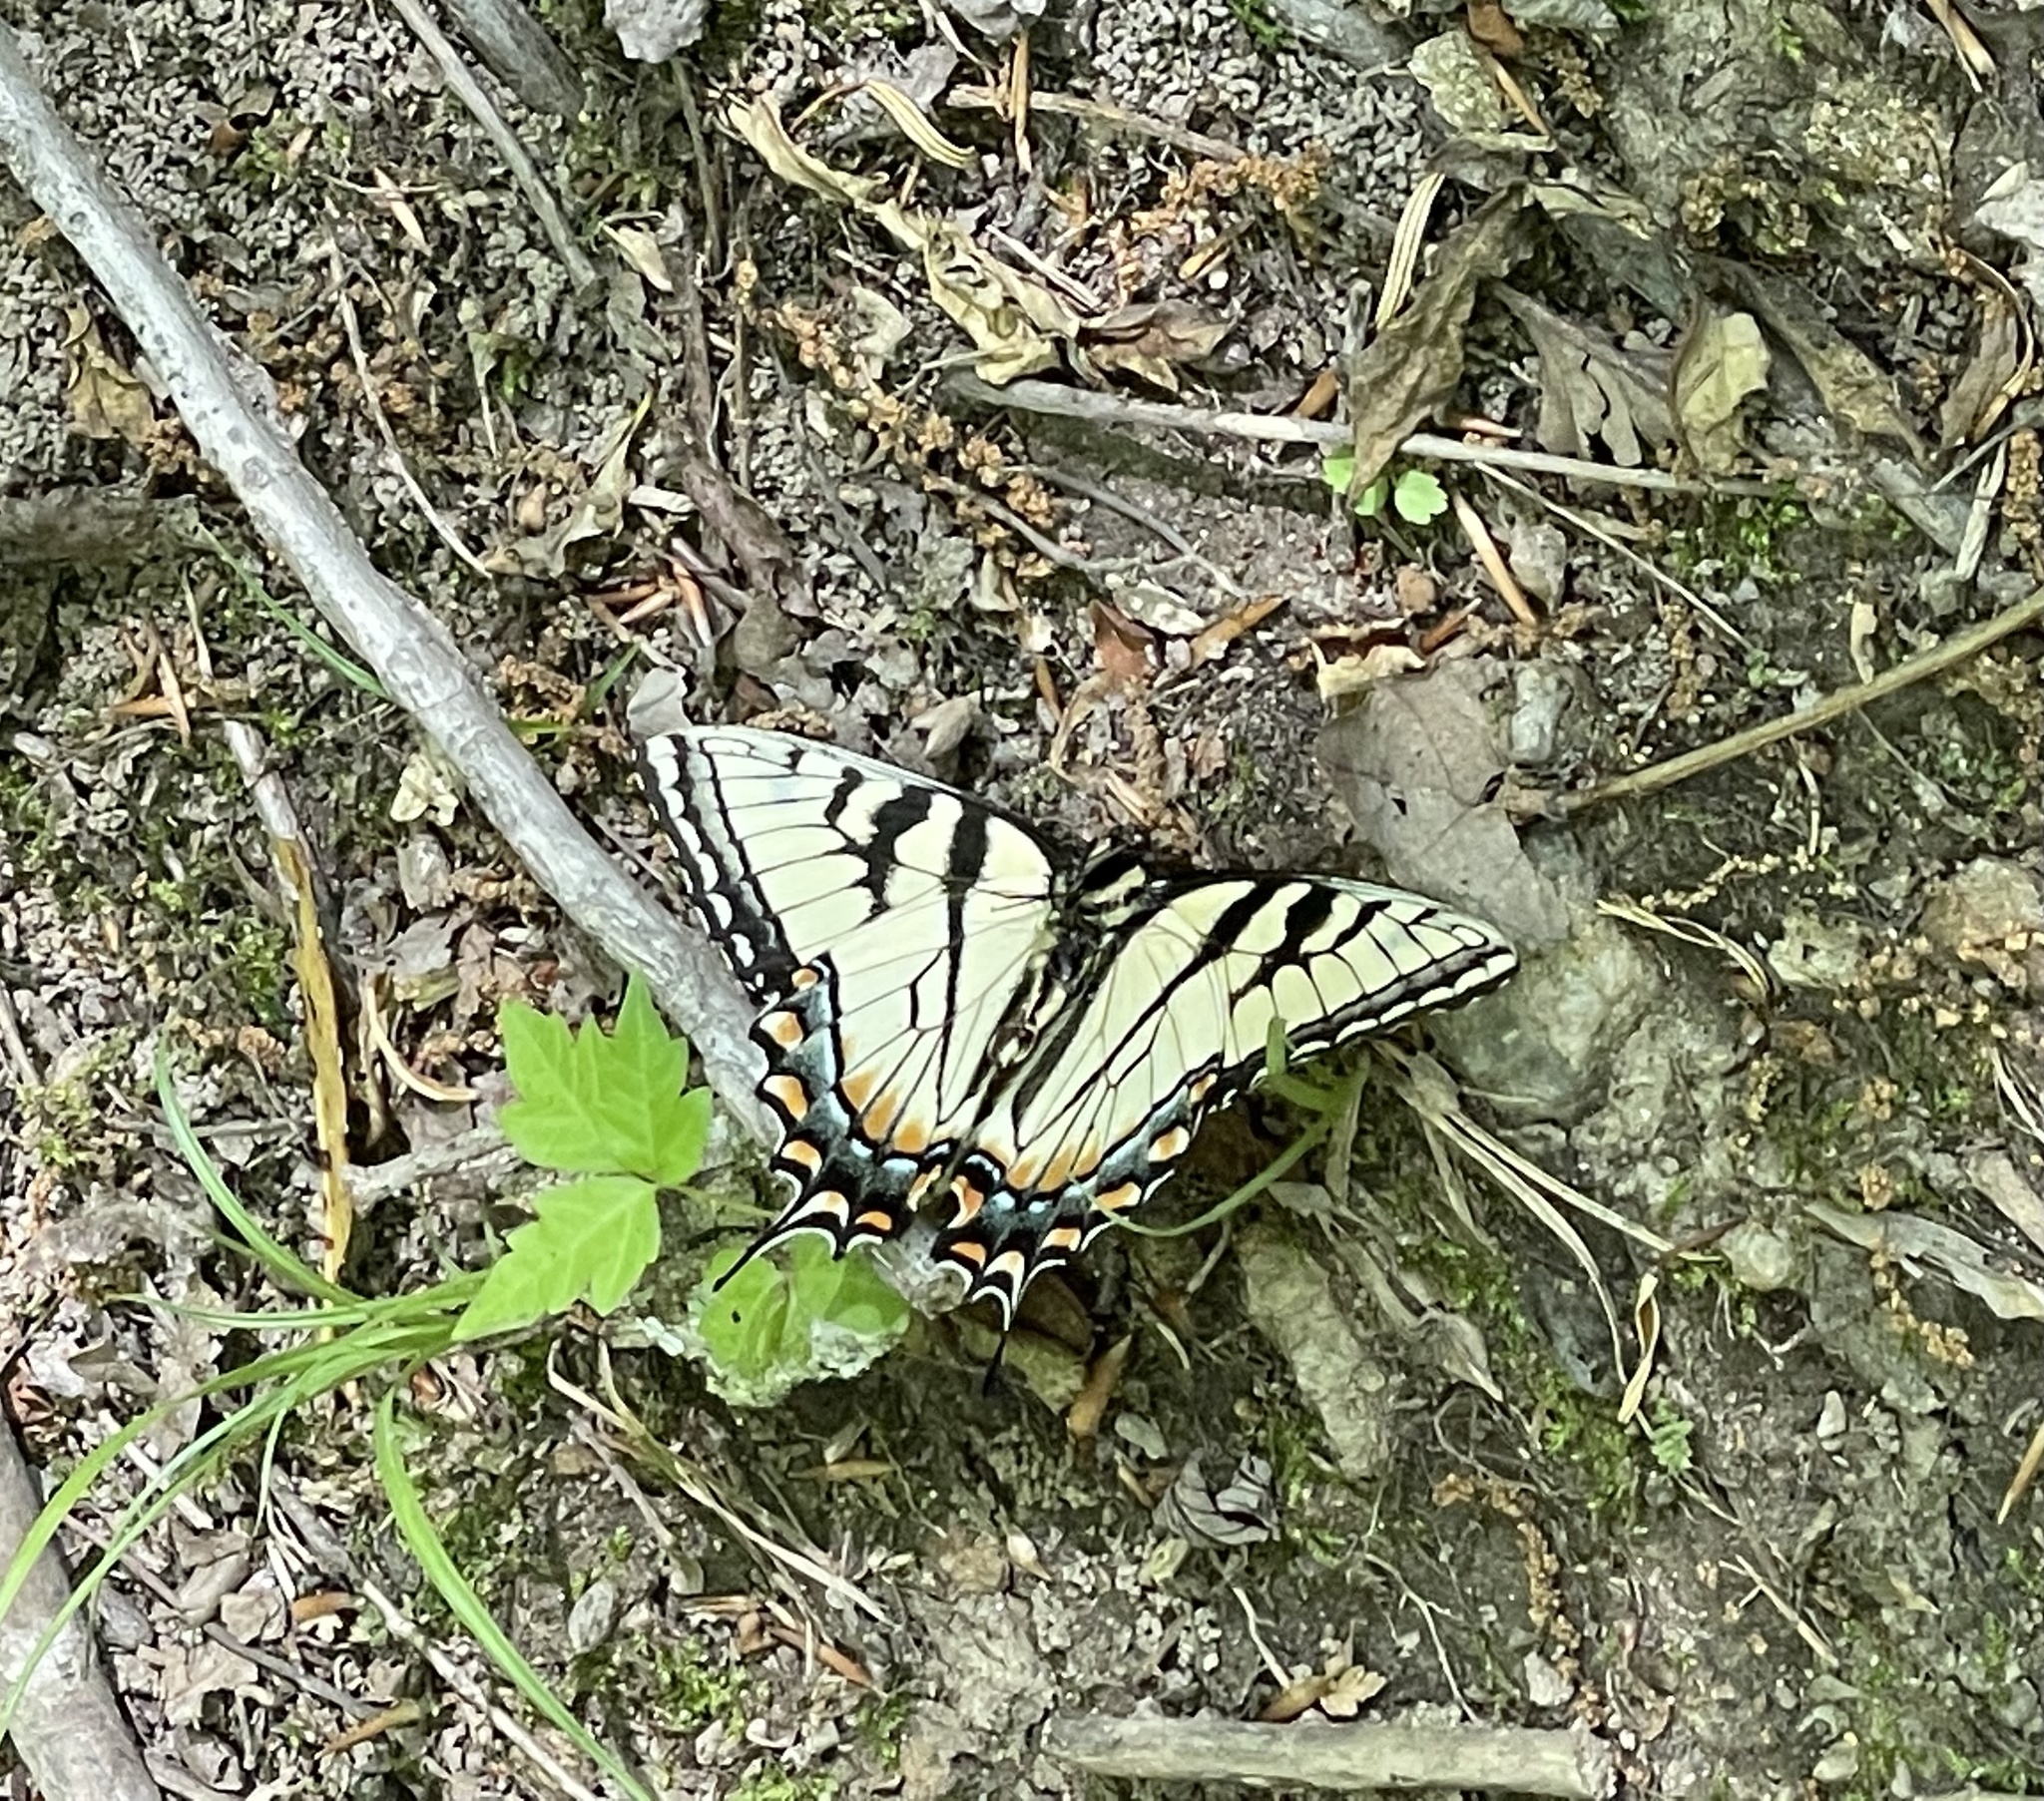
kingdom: Animalia
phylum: Arthropoda
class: Insecta
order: Lepidoptera
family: Papilionidae
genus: Papilio
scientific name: Papilio glaucus
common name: Tiger swallowtail
